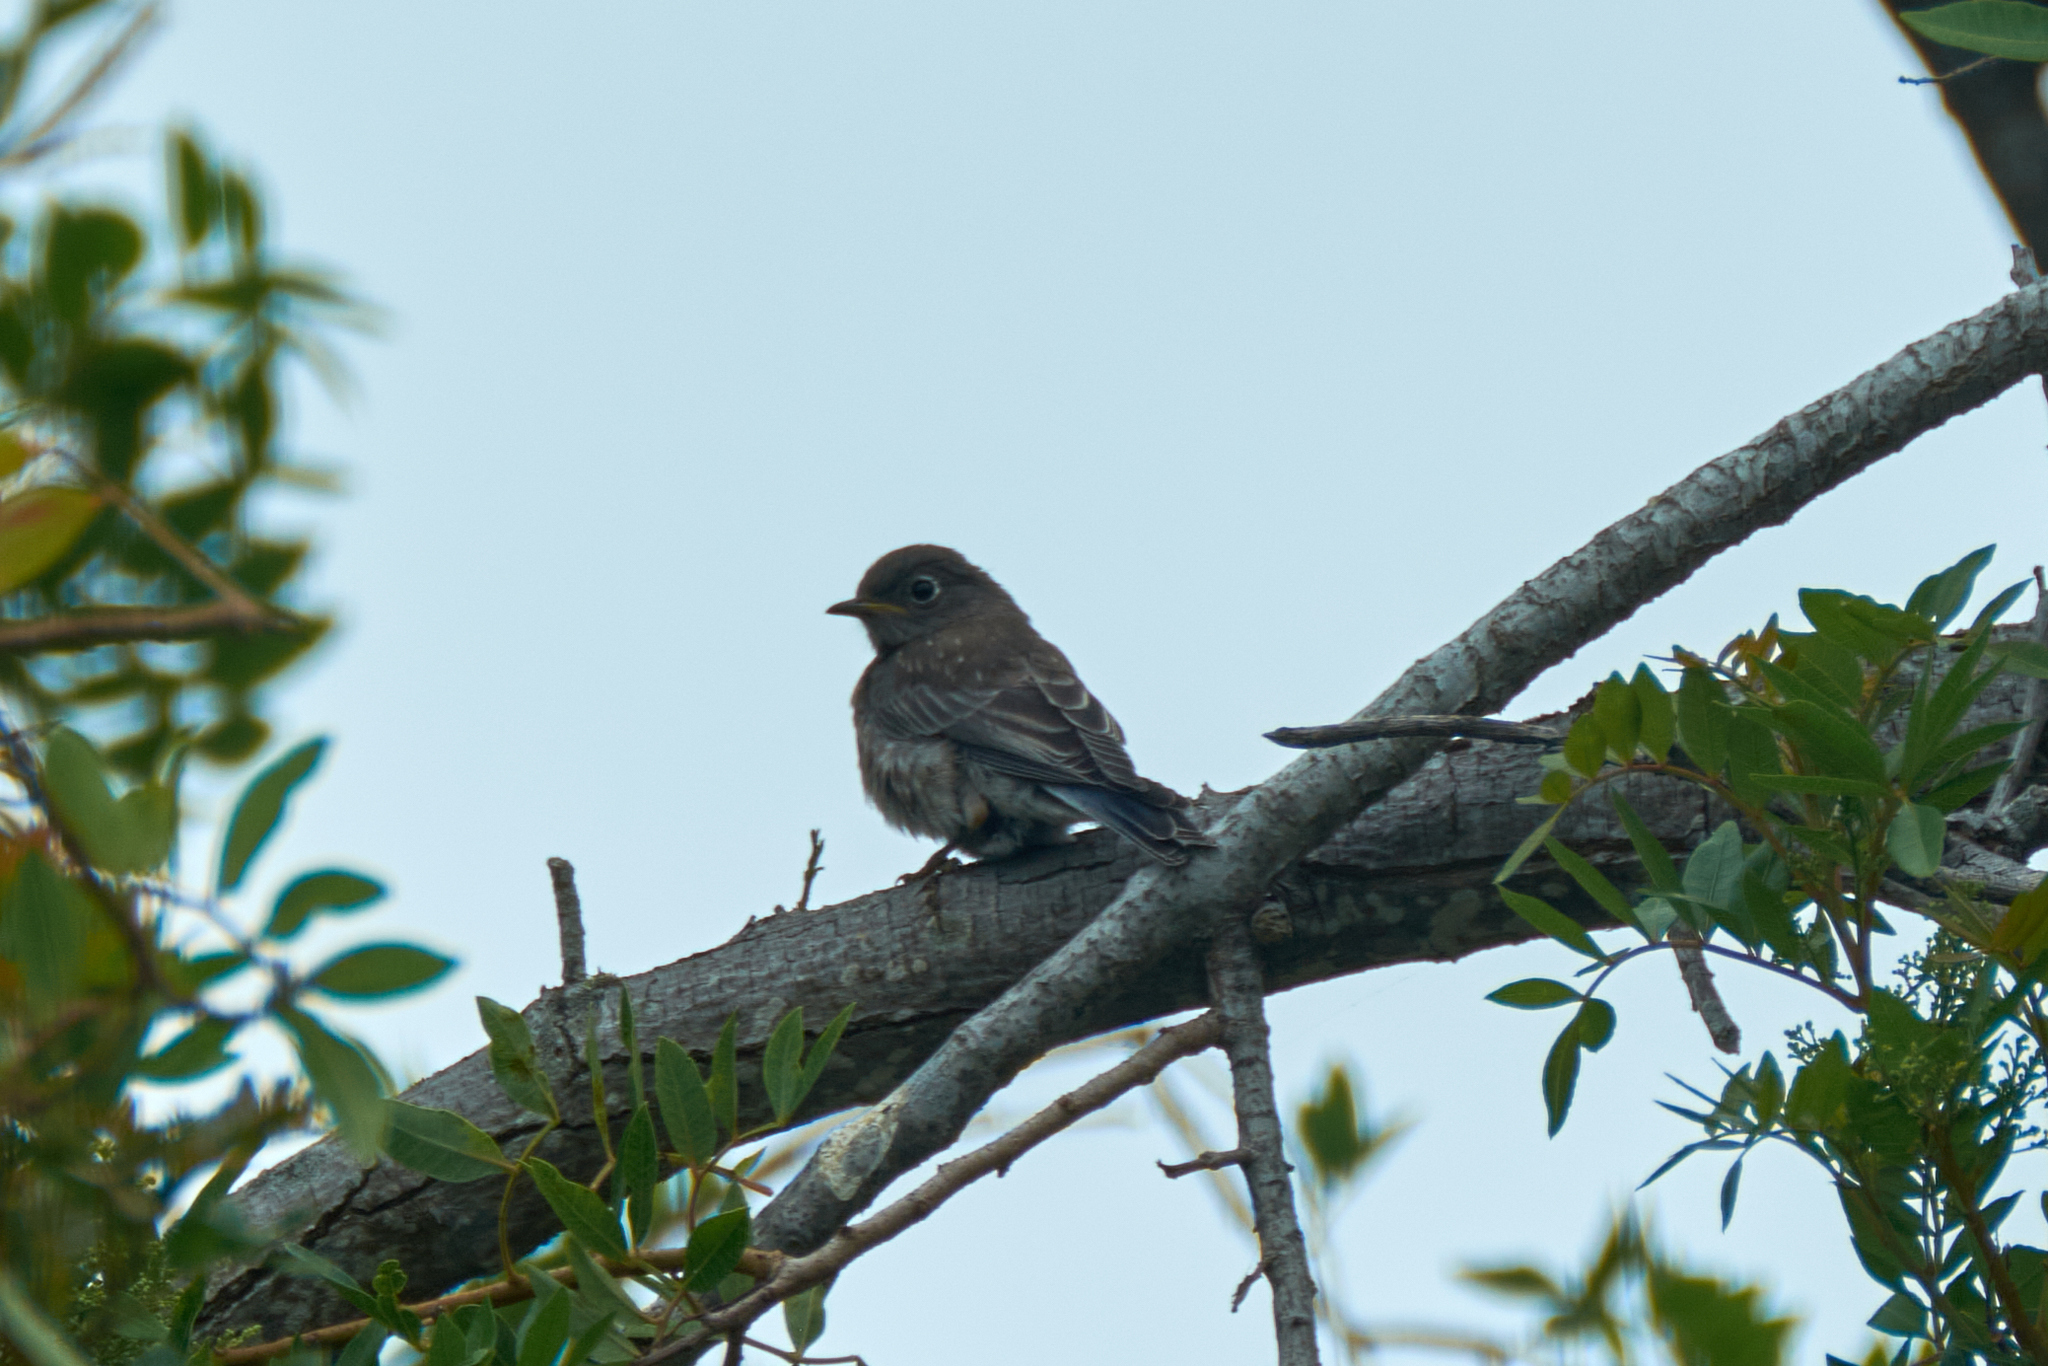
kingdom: Animalia
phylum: Chordata
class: Aves
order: Passeriformes
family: Turdidae
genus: Sialia
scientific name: Sialia mexicana
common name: Western bluebird
